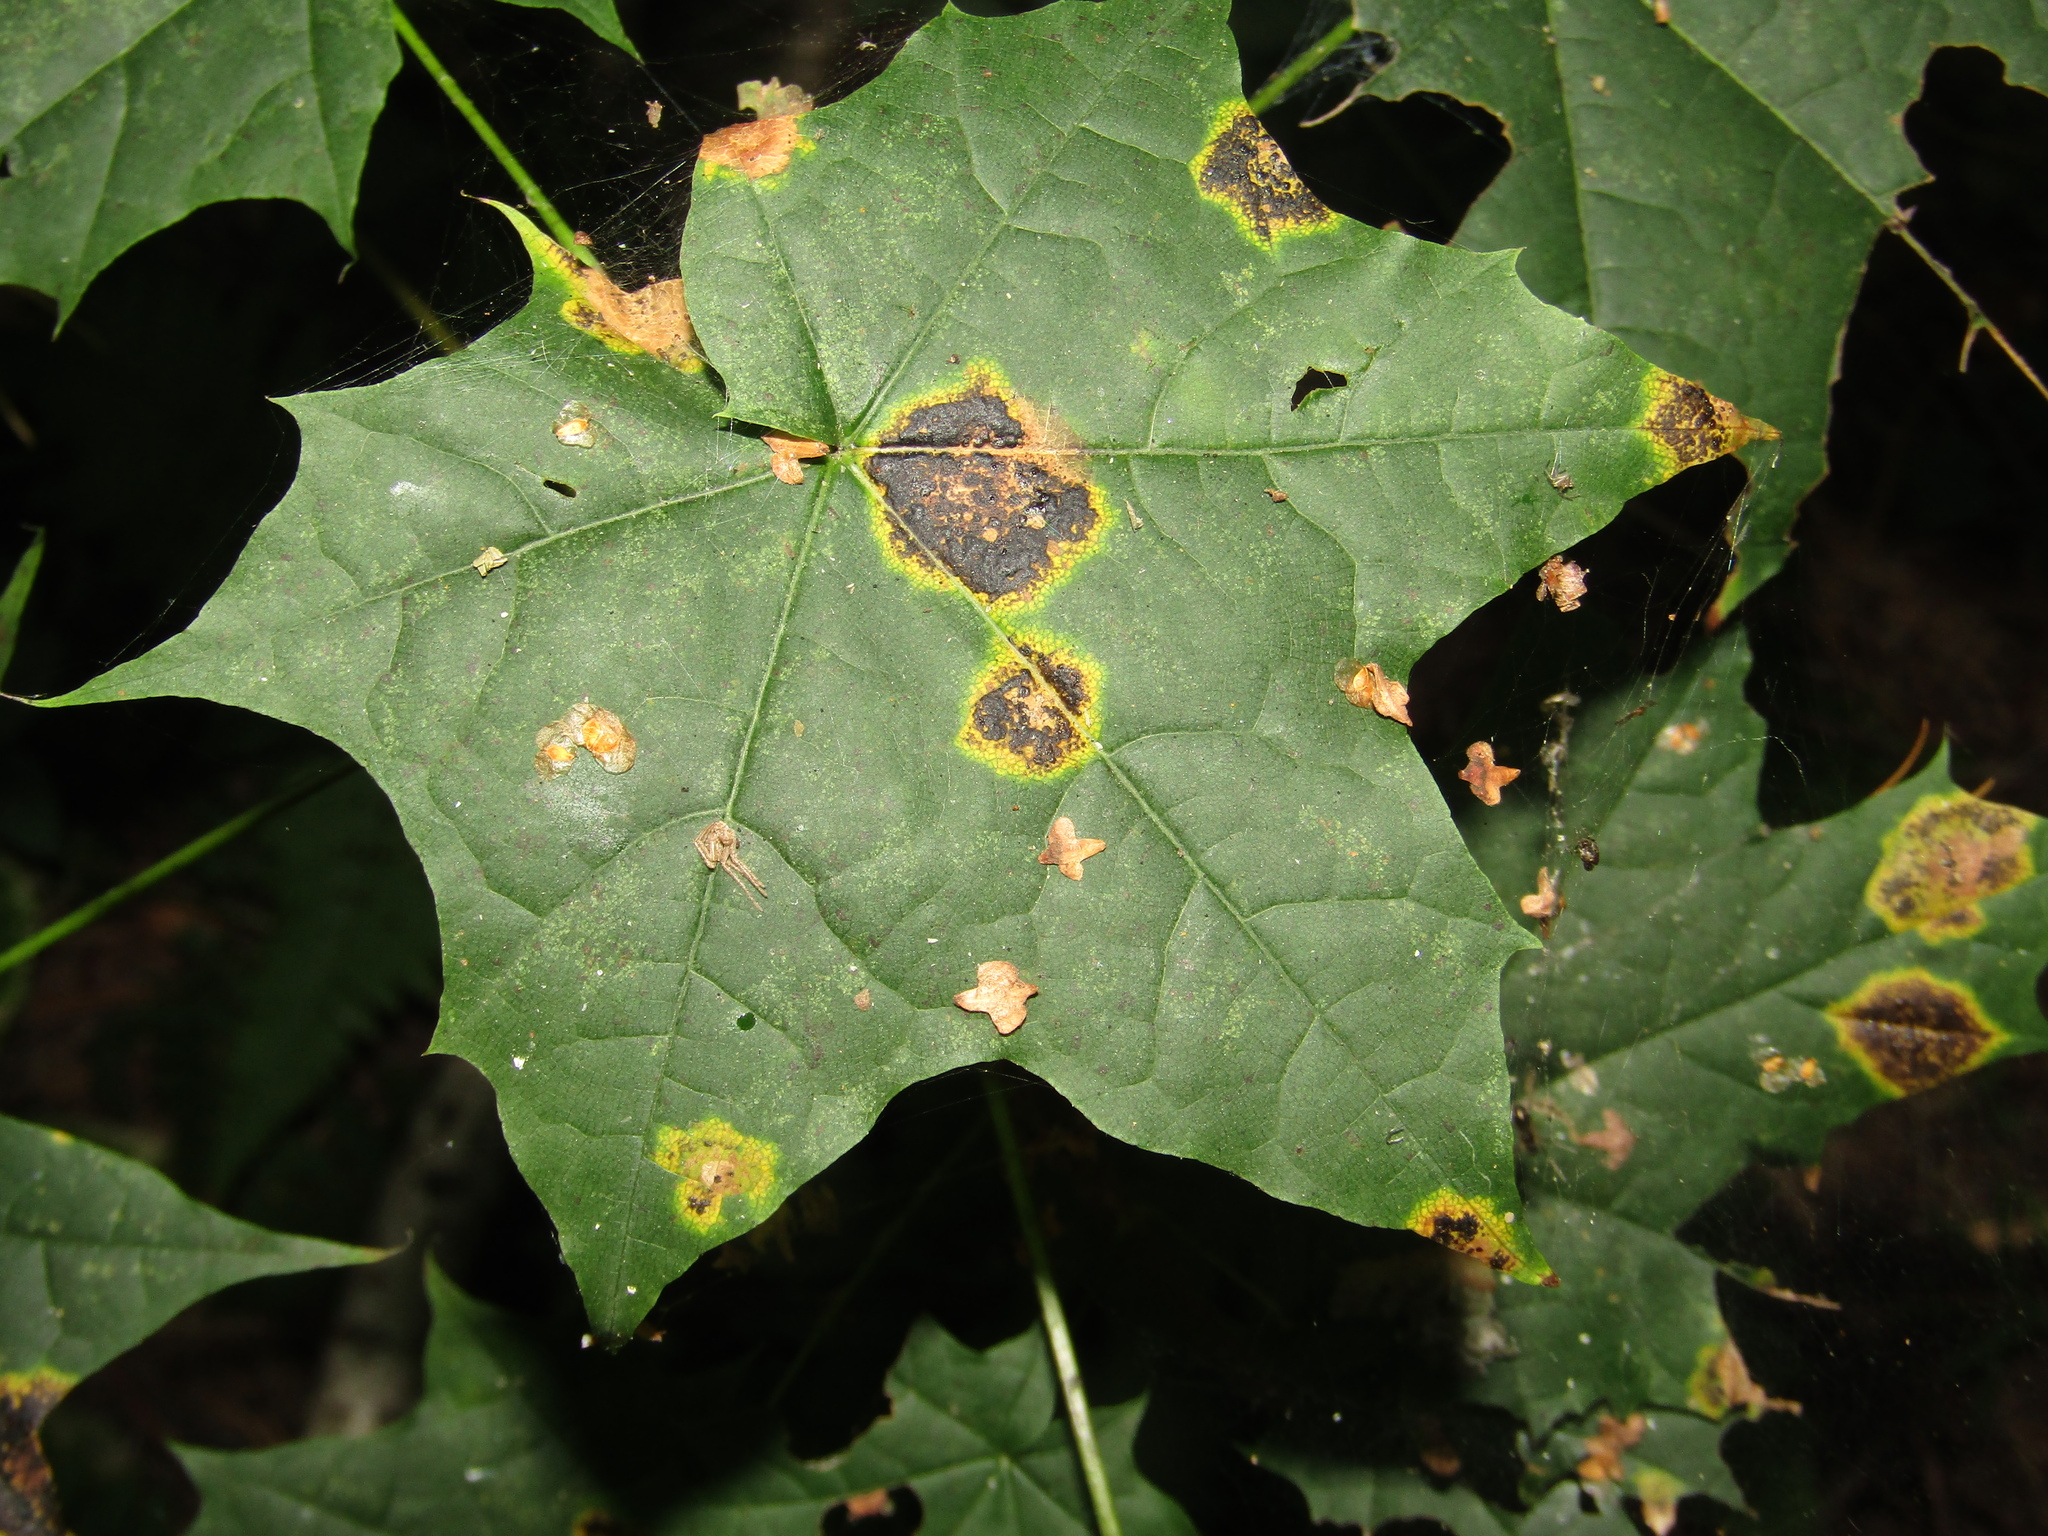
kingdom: Fungi
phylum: Ascomycota
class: Leotiomycetes
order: Rhytismatales
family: Rhytismataceae
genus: Rhytisma
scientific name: Rhytisma acerinum
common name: European tar spot
